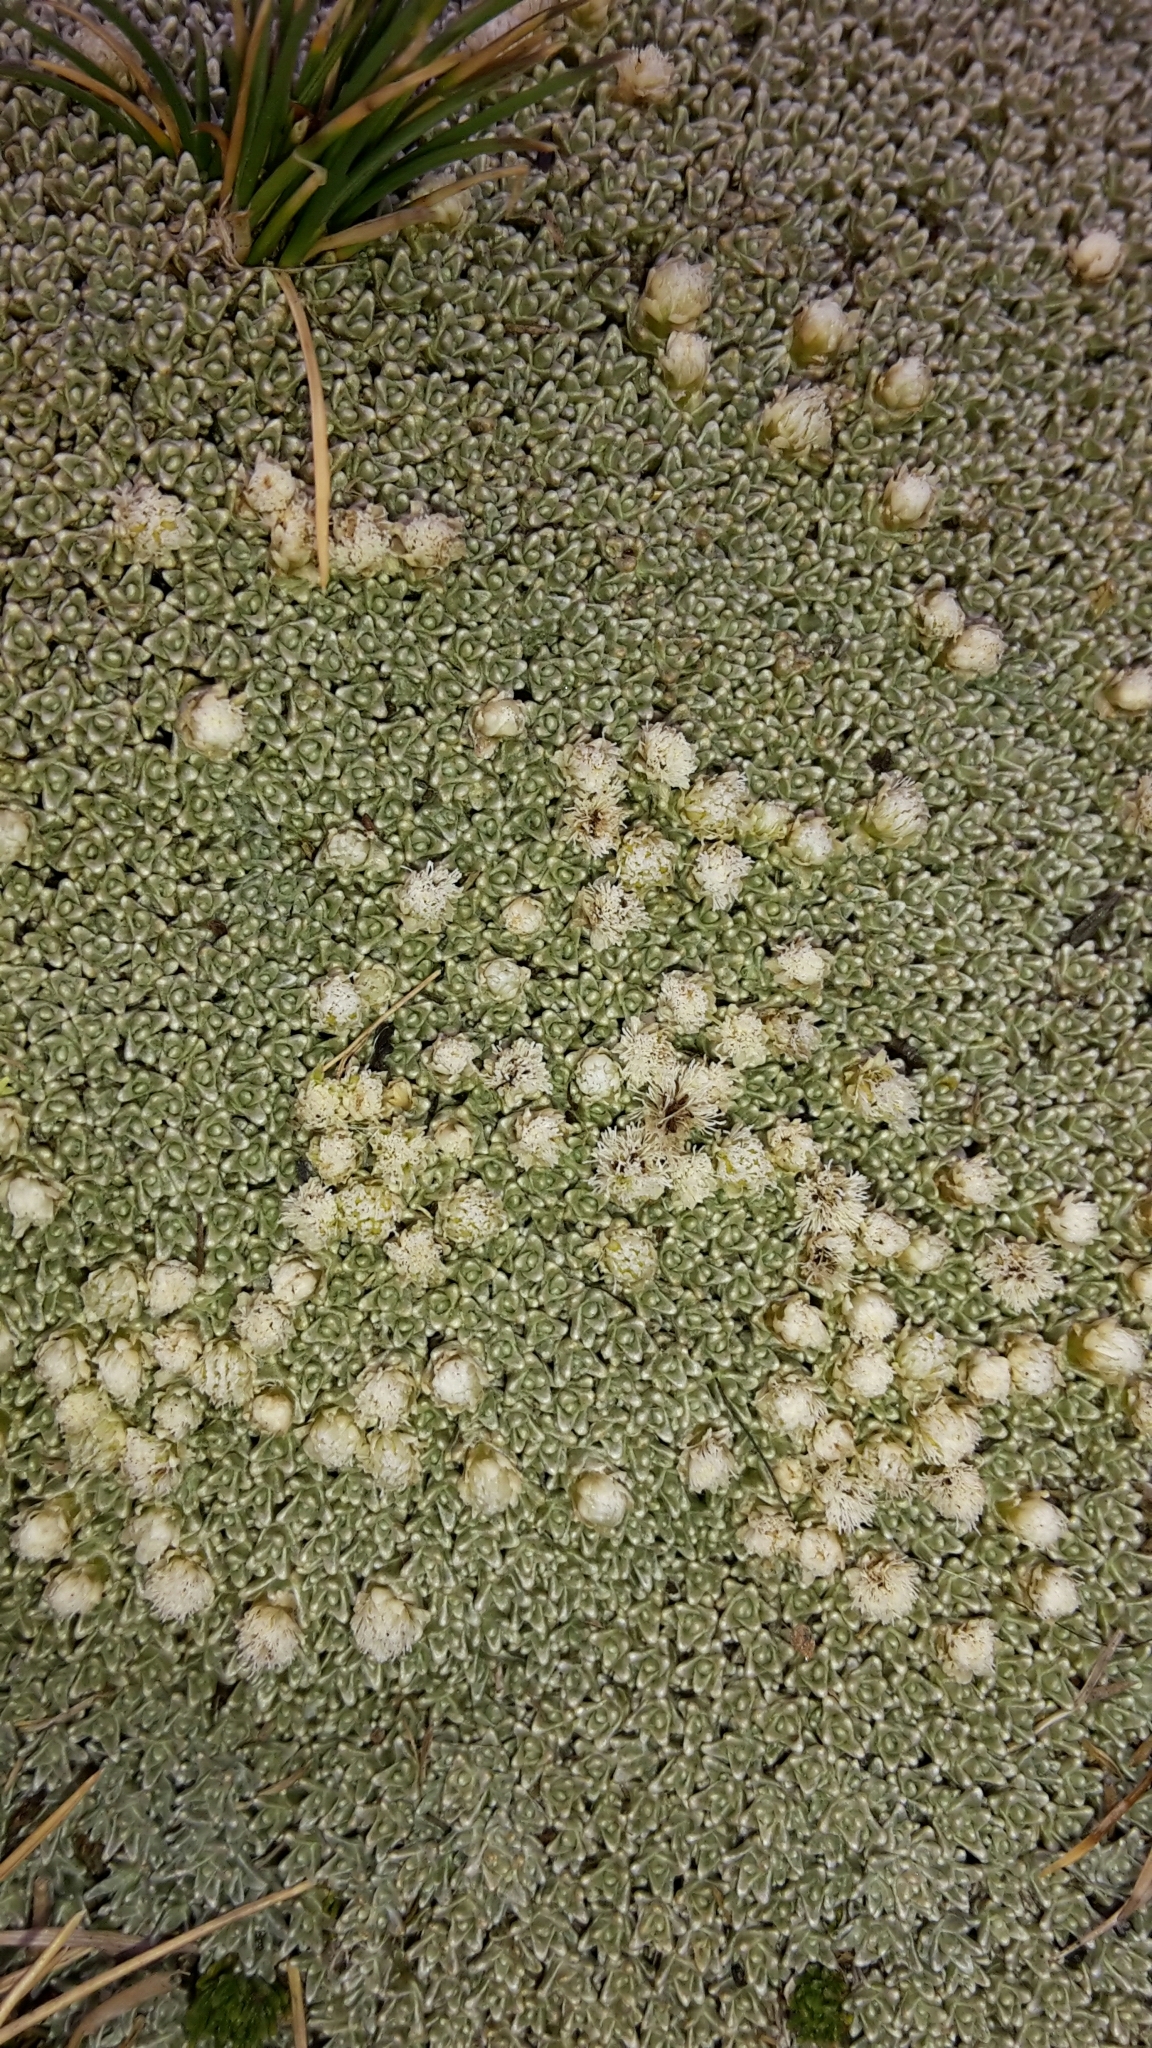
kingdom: Plantae
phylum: Tracheophyta
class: Magnoliopsida
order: Asterales
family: Asteraceae
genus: Raoulia
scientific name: Raoulia hectorii
